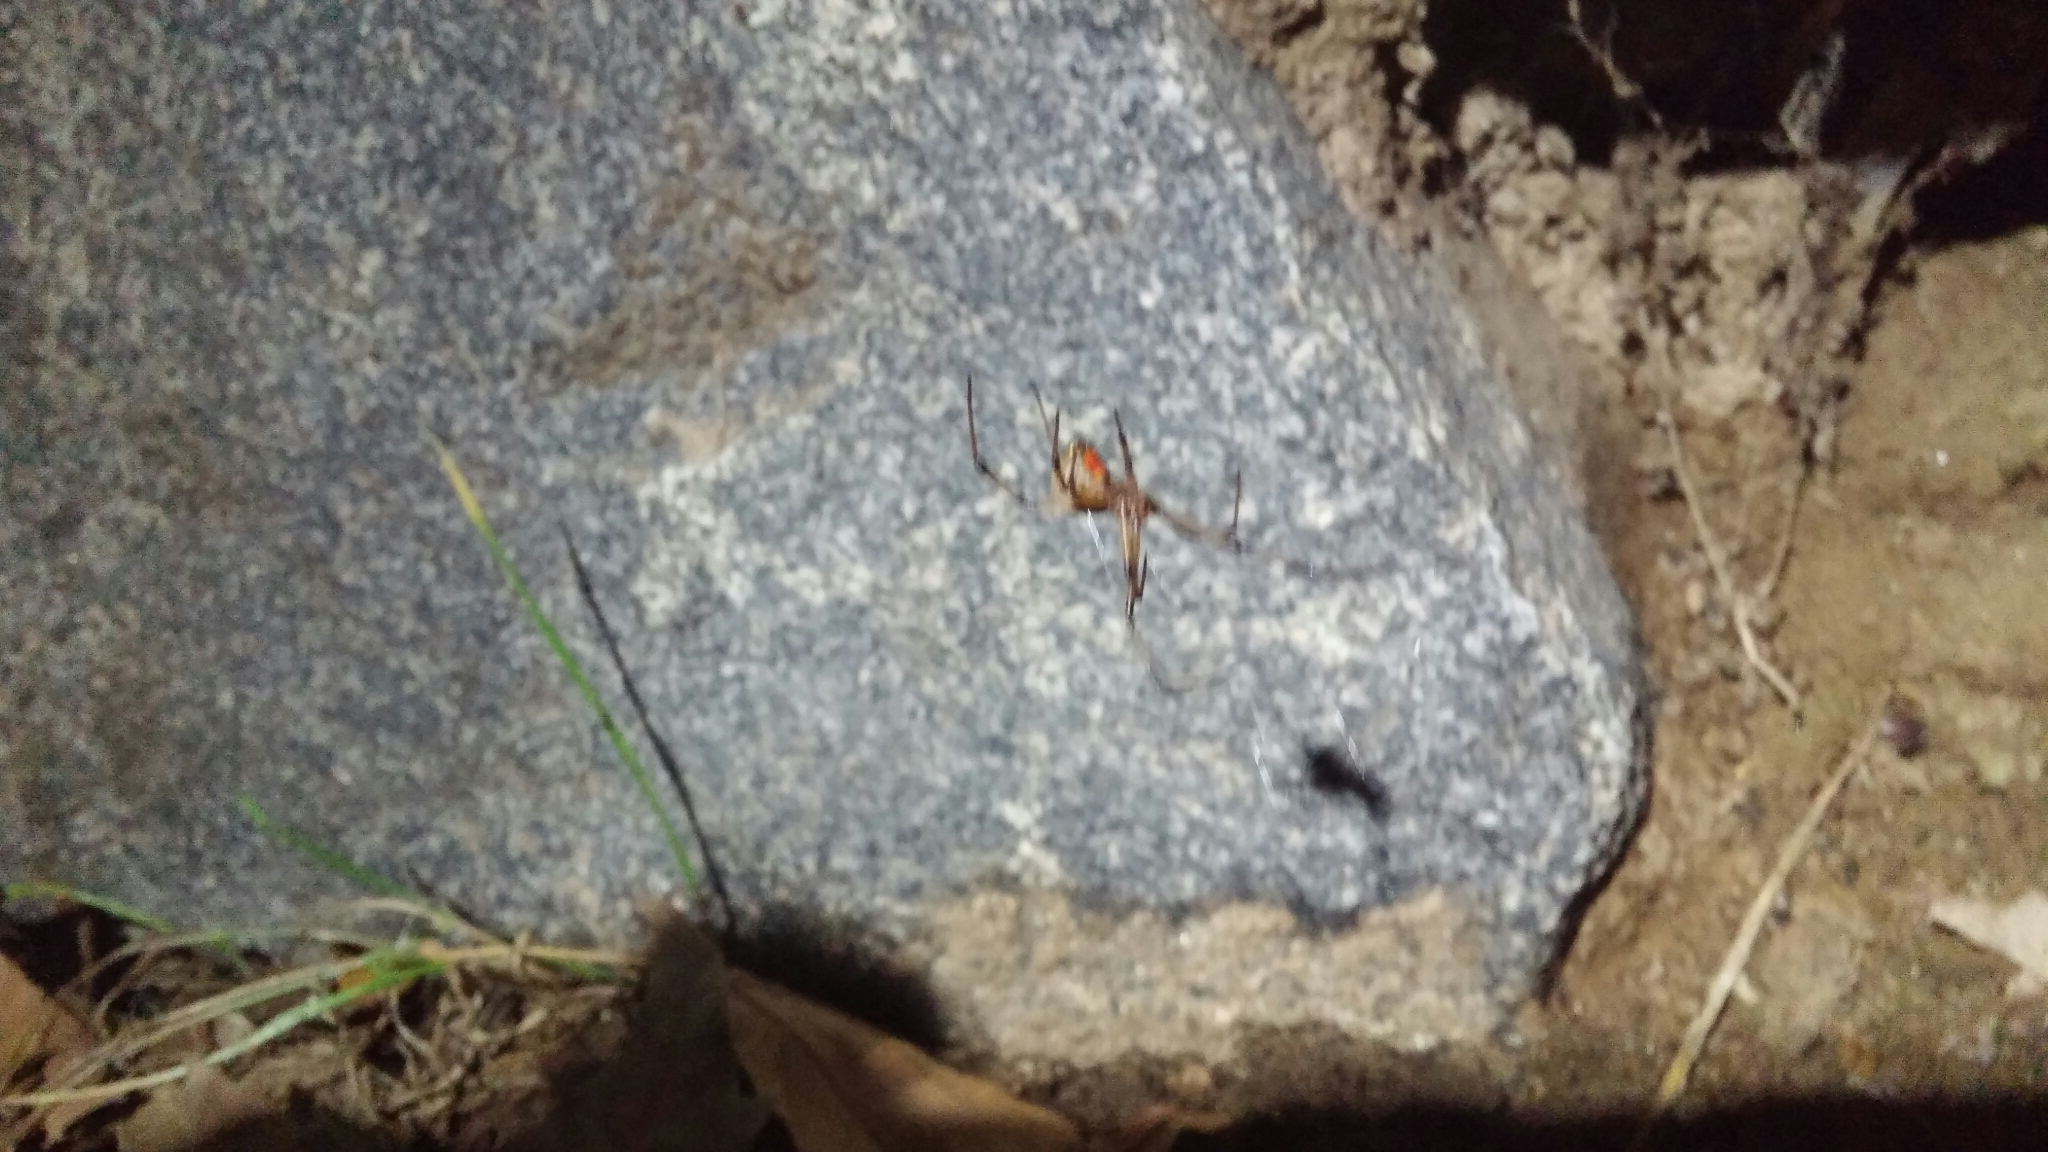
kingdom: Animalia
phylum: Arthropoda
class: Arachnida
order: Araneae
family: Theridiidae
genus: Latrodectus
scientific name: Latrodectus geometricus
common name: Brown widow spider
